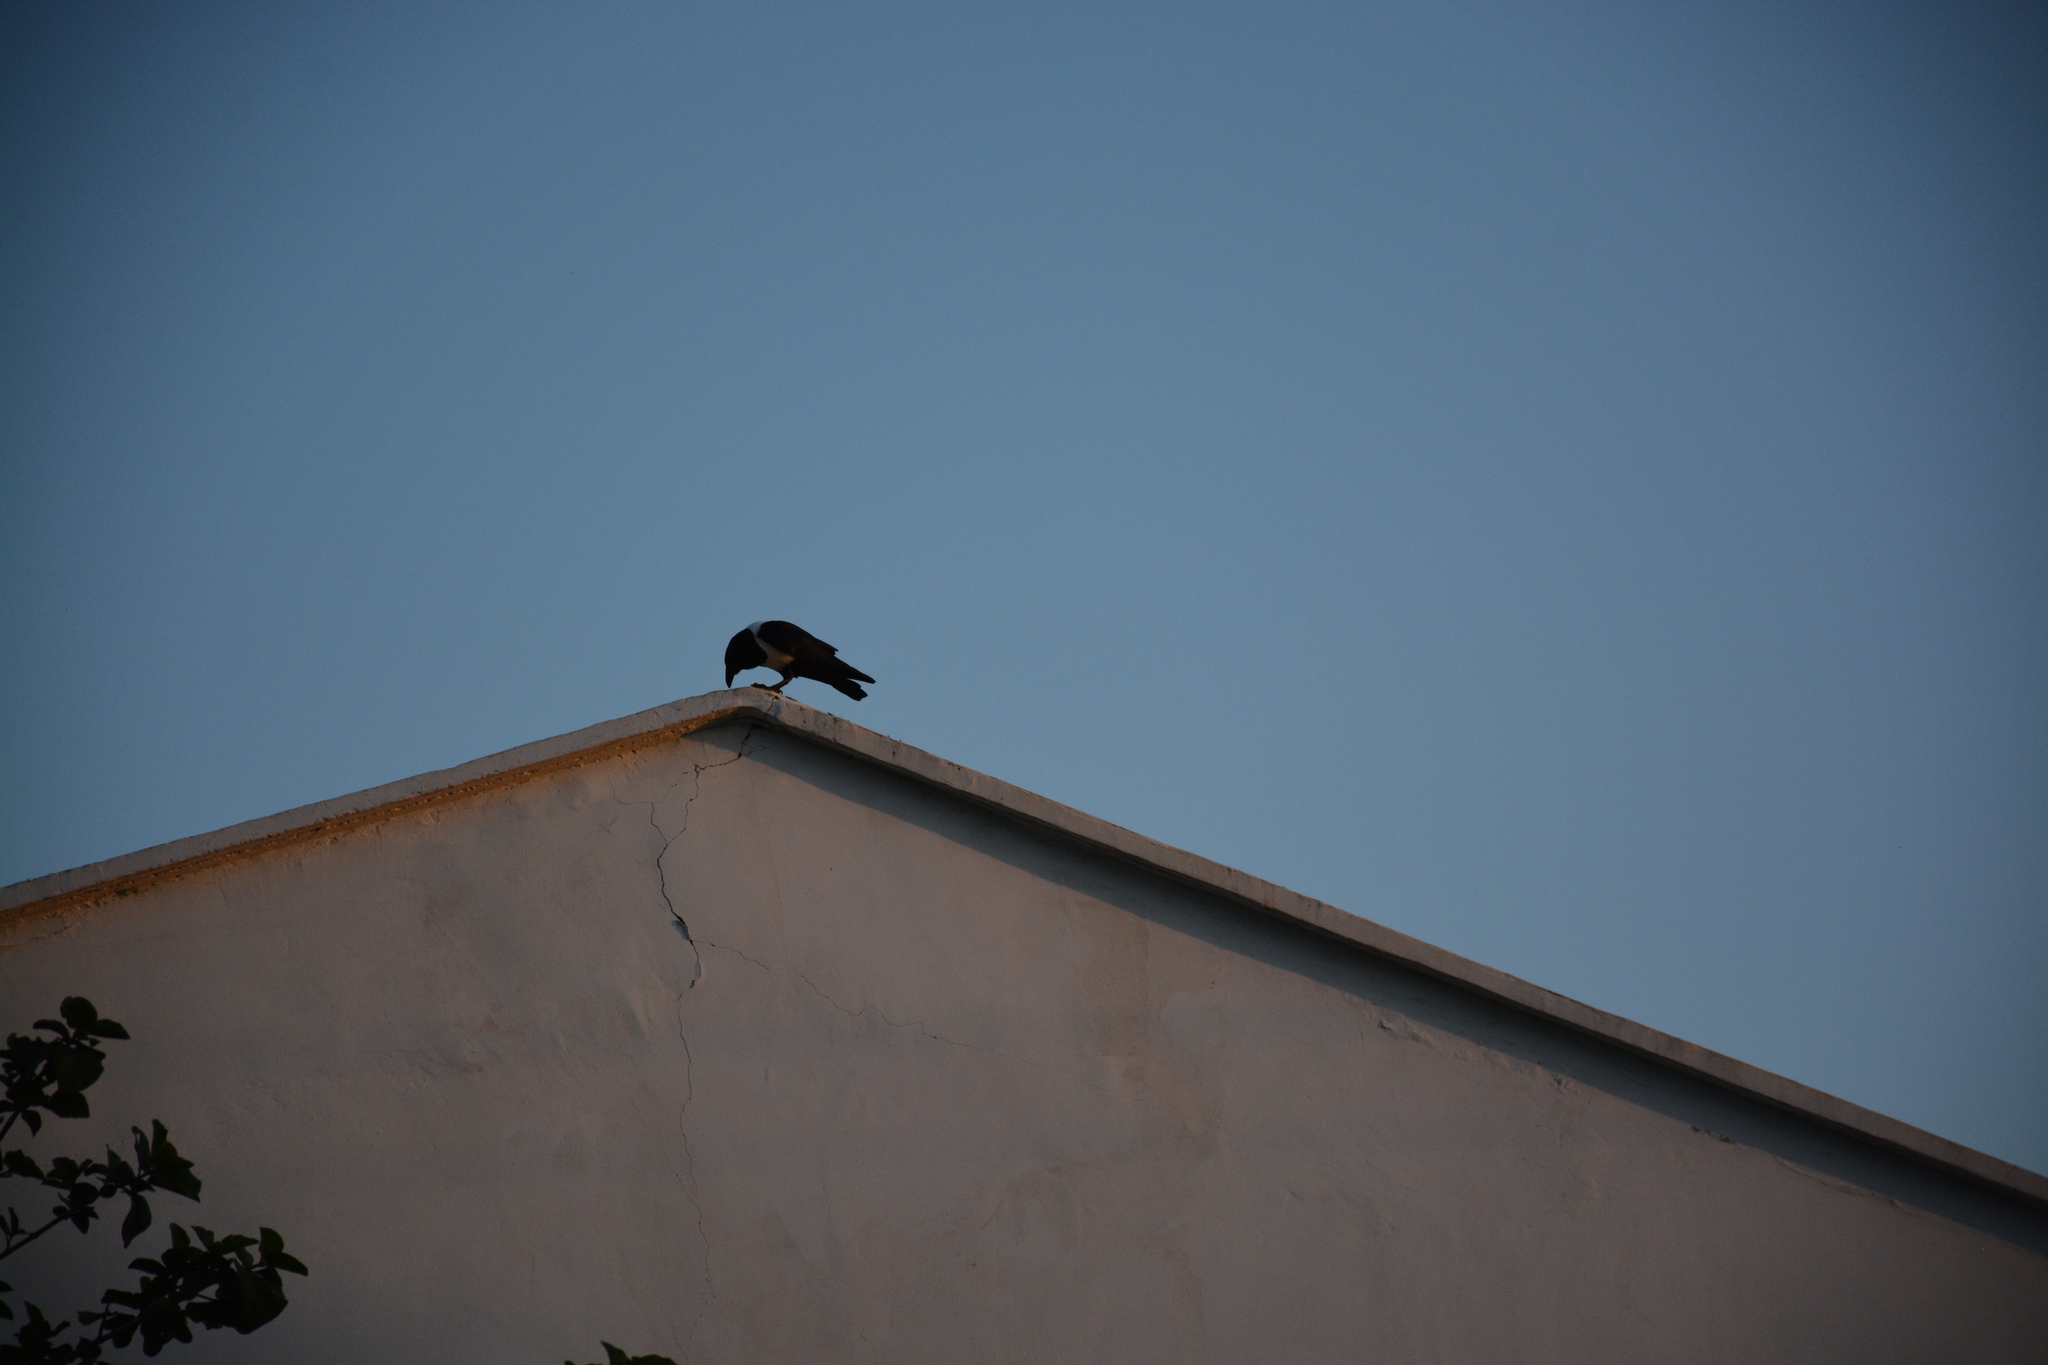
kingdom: Animalia
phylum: Chordata
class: Aves
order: Passeriformes
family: Corvidae
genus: Corvus
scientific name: Corvus albus
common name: Pied crow
